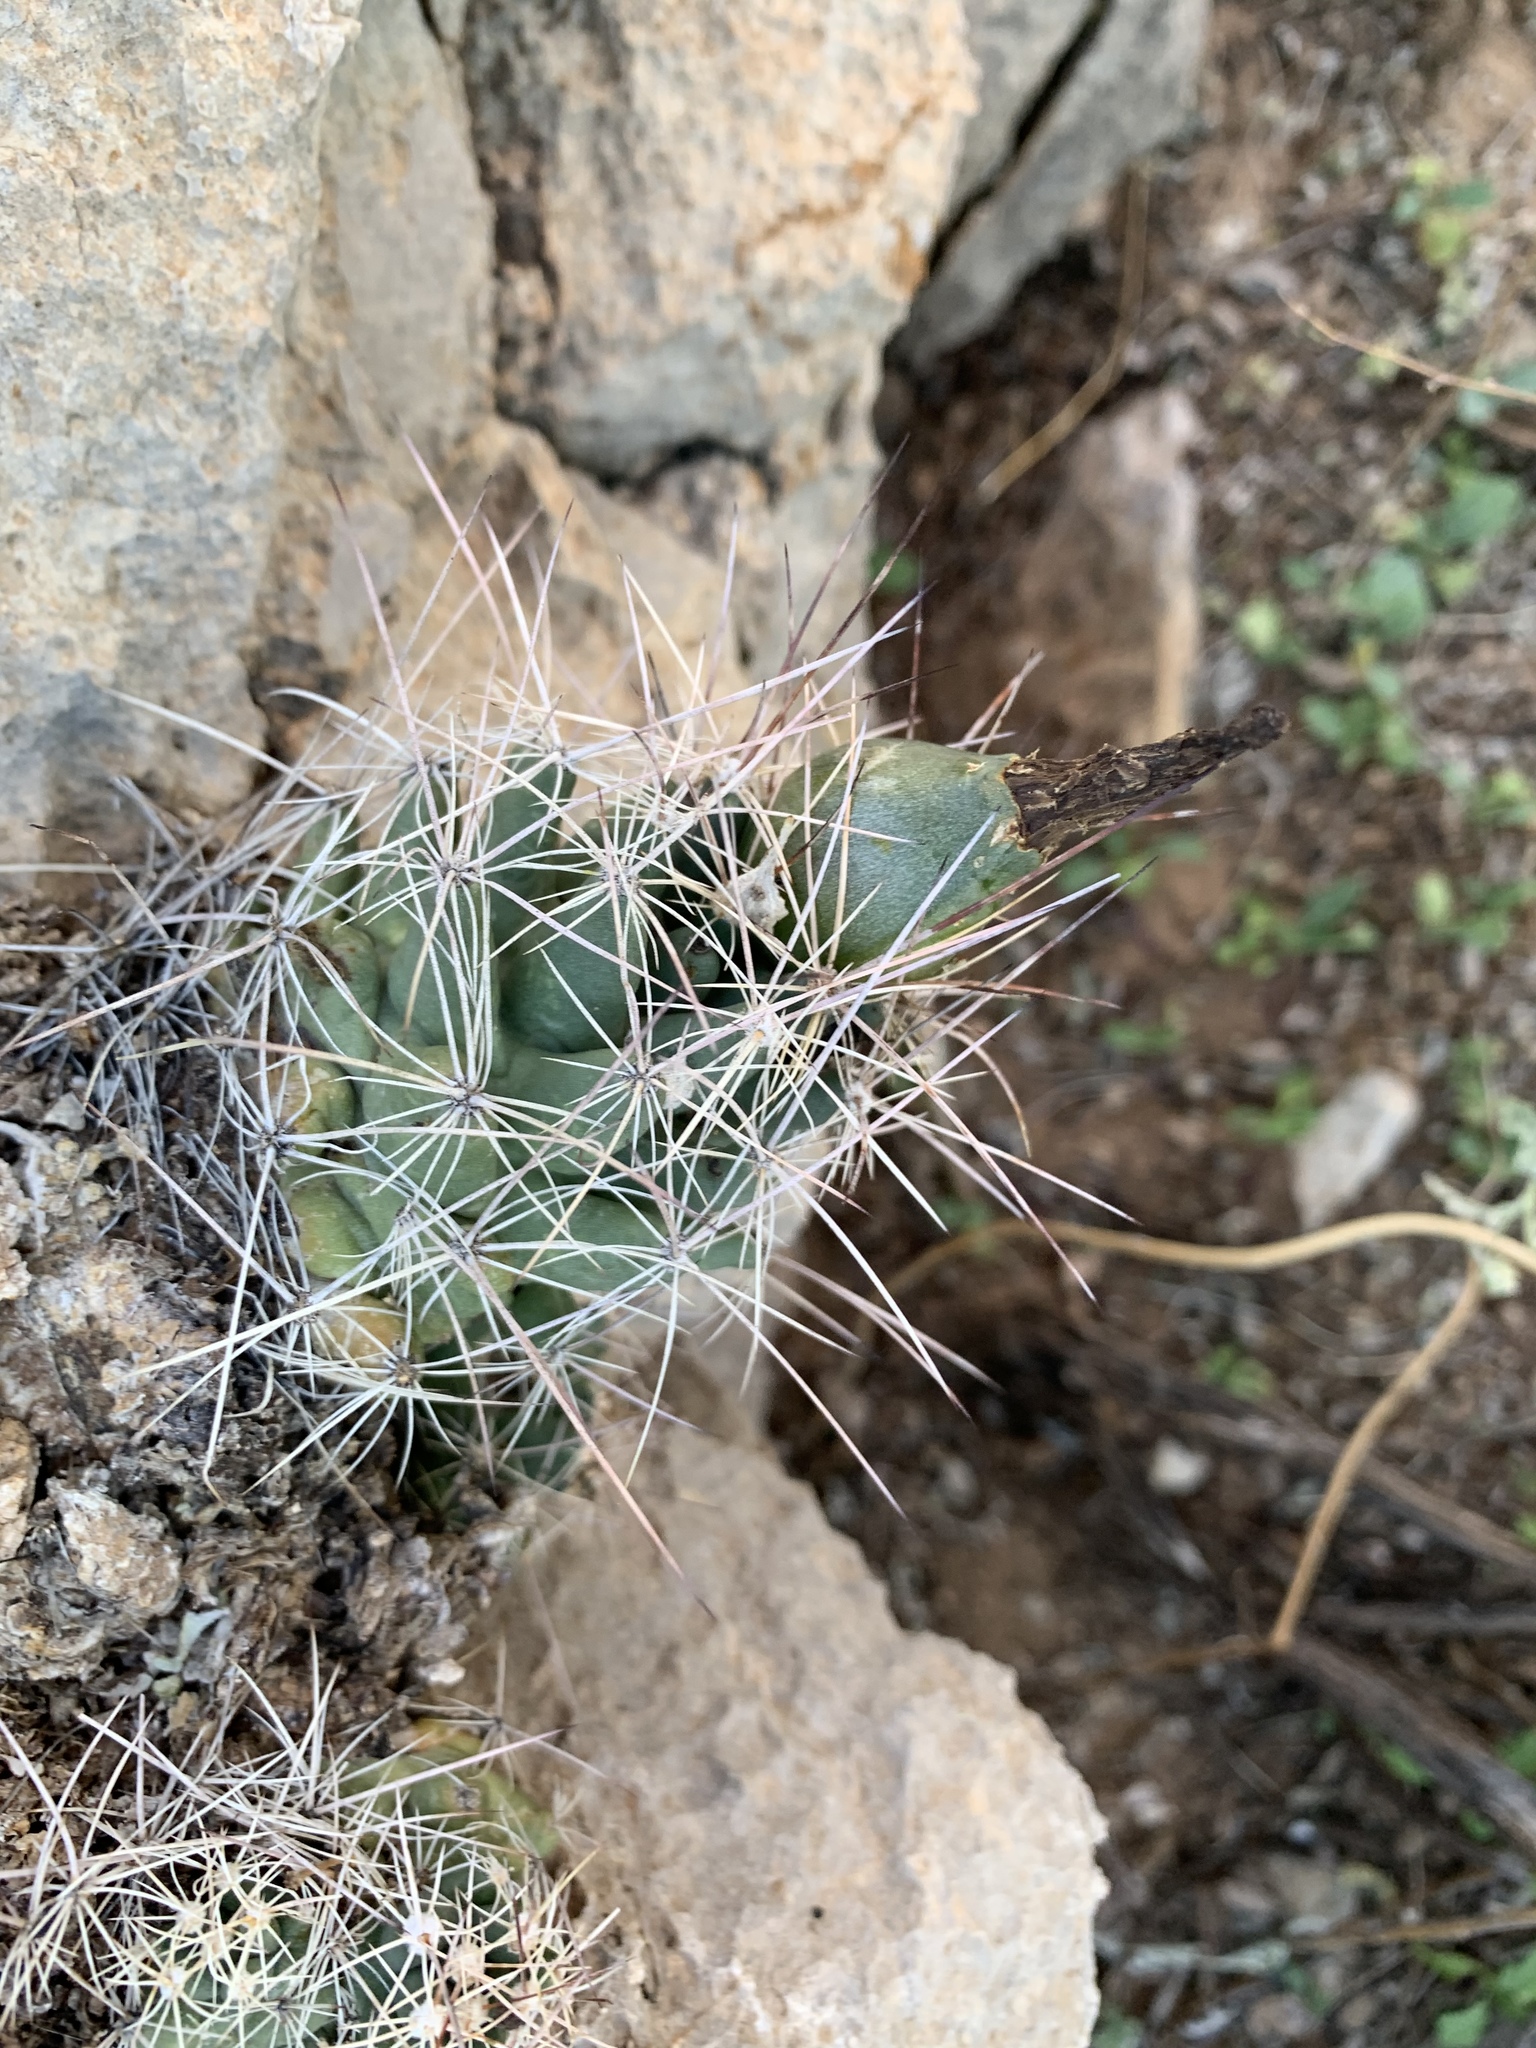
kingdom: Plantae
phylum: Tracheophyta
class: Magnoliopsida
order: Caryophyllales
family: Cactaceae
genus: Coryphantha
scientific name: Coryphantha macromeris
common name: Nipple beehive cactus
